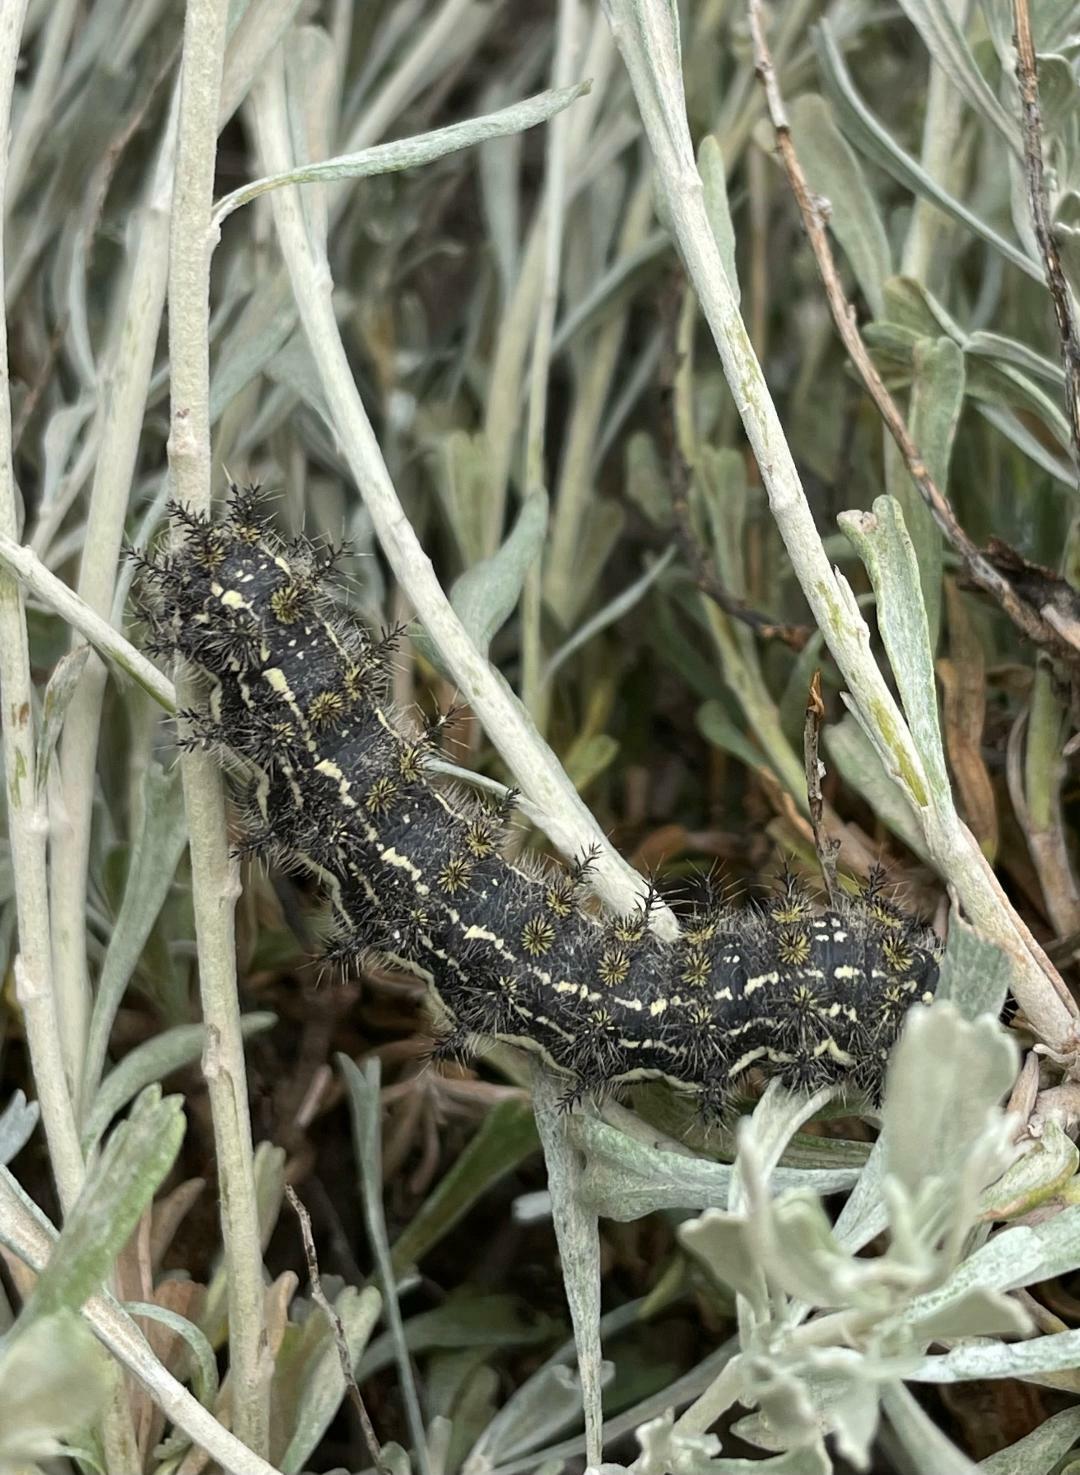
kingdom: Animalia
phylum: Arthropoda
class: Insecta
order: Lepidoptera
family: Saturniidae
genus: Hemileuca
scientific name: Hemileuca hera
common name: Hera sheepmoth
